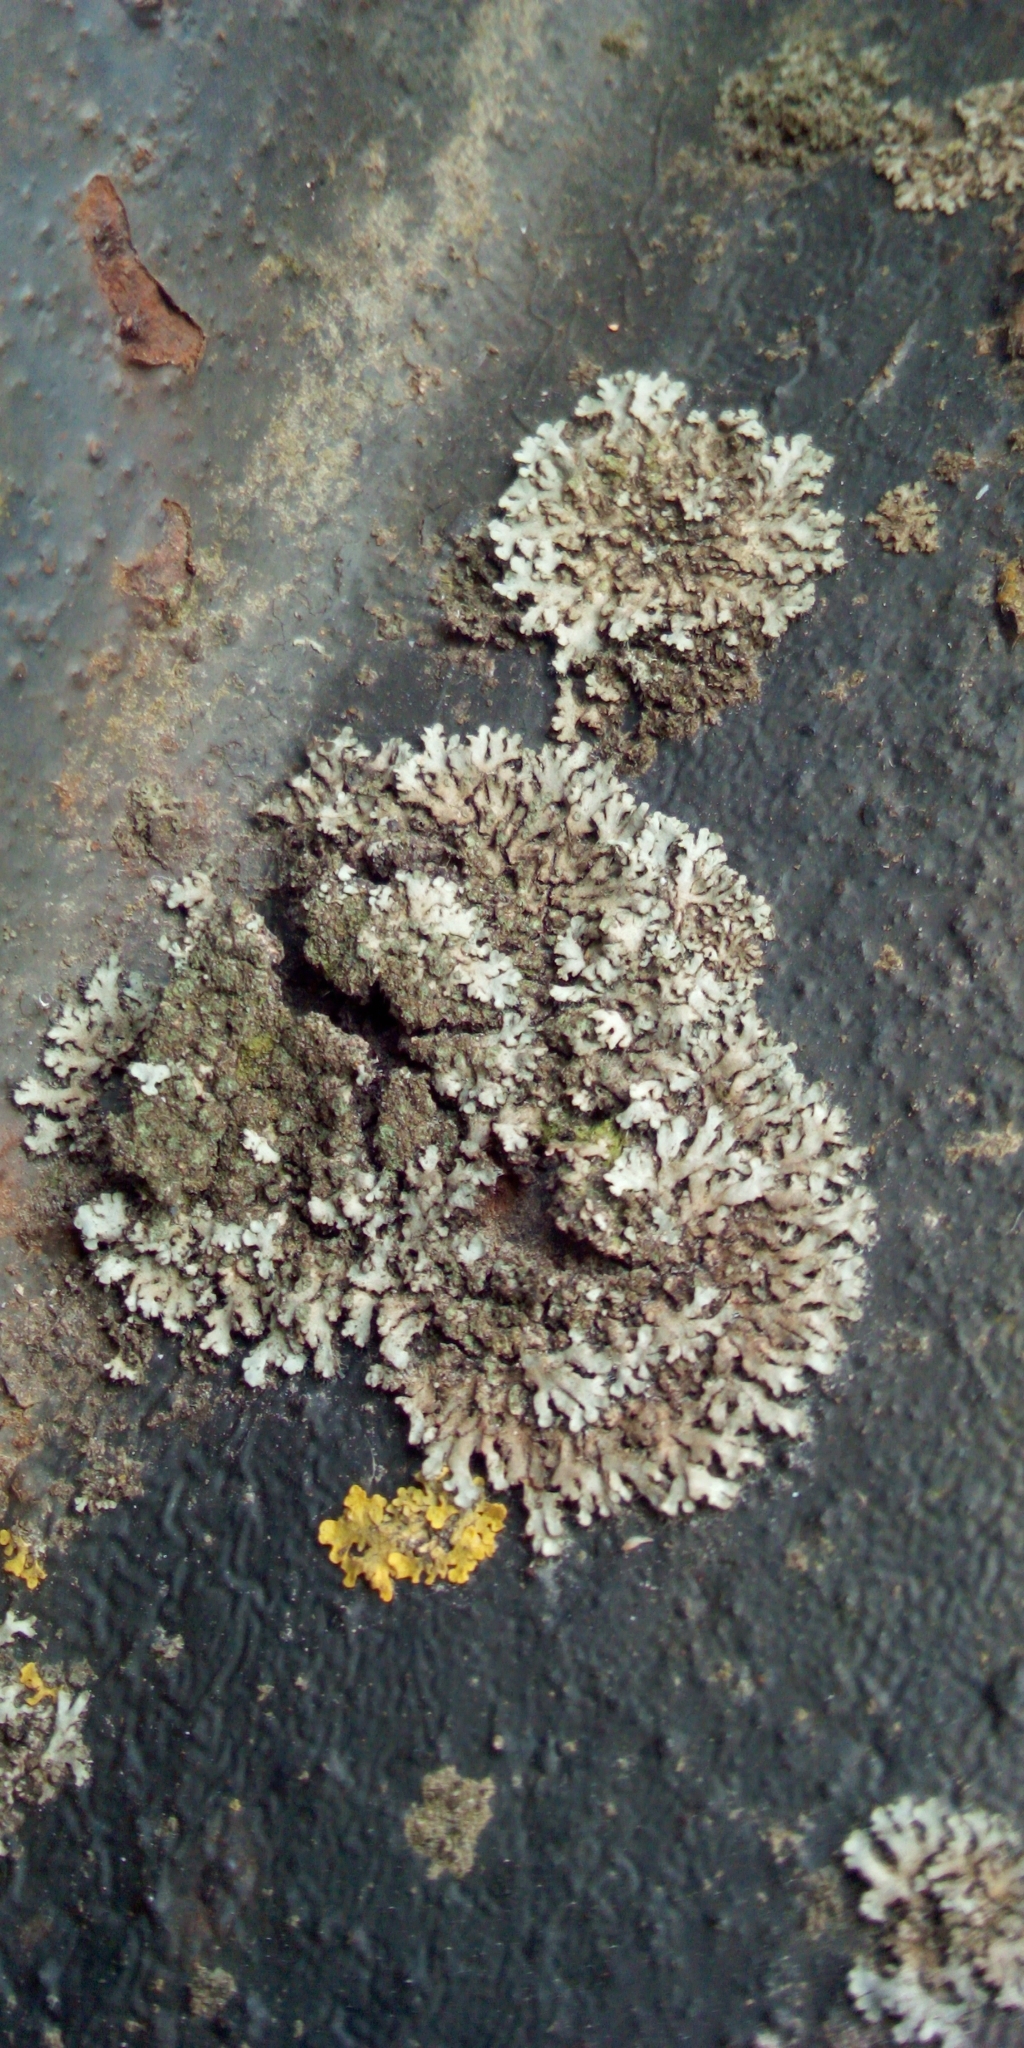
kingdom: Fungi
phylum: Ascomycota
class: Lecanoromycetes
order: Caliciales
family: Physciaceae
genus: Phaeophyscia
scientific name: Phaeophyscia orbicularis
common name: Mealy shadow lichen
